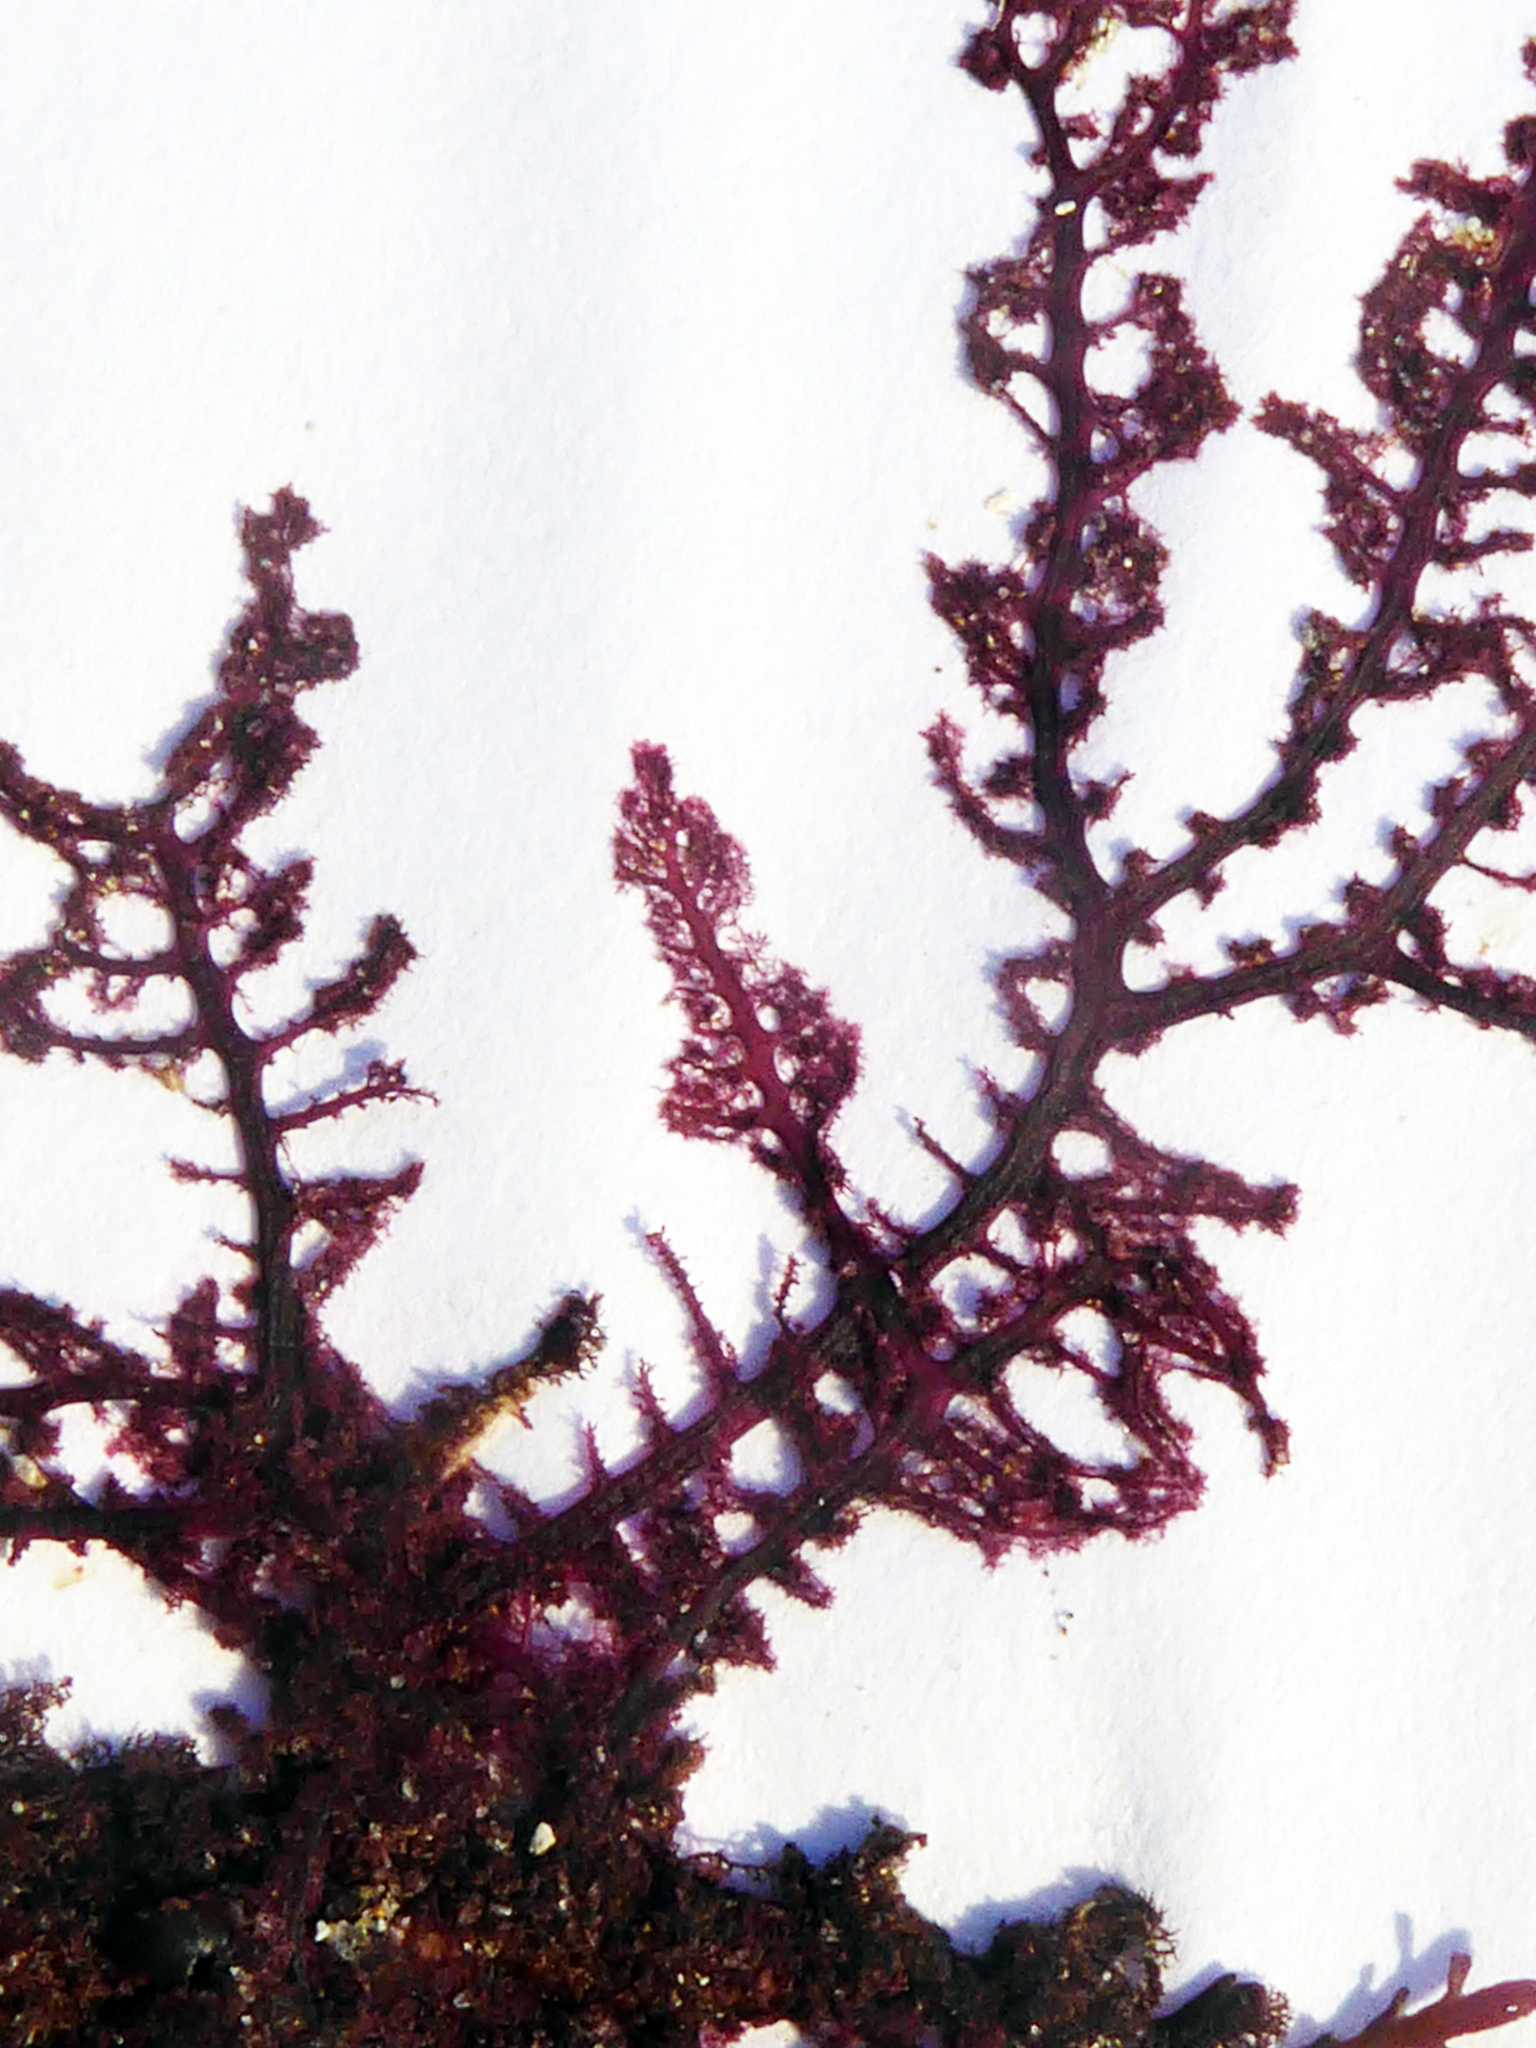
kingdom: Plantae
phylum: Rhodophyta
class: Florideophyceae
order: Ceramiales
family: Callithamniaceae
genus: Aristoptilon
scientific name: Aristoptilon mooreanum
